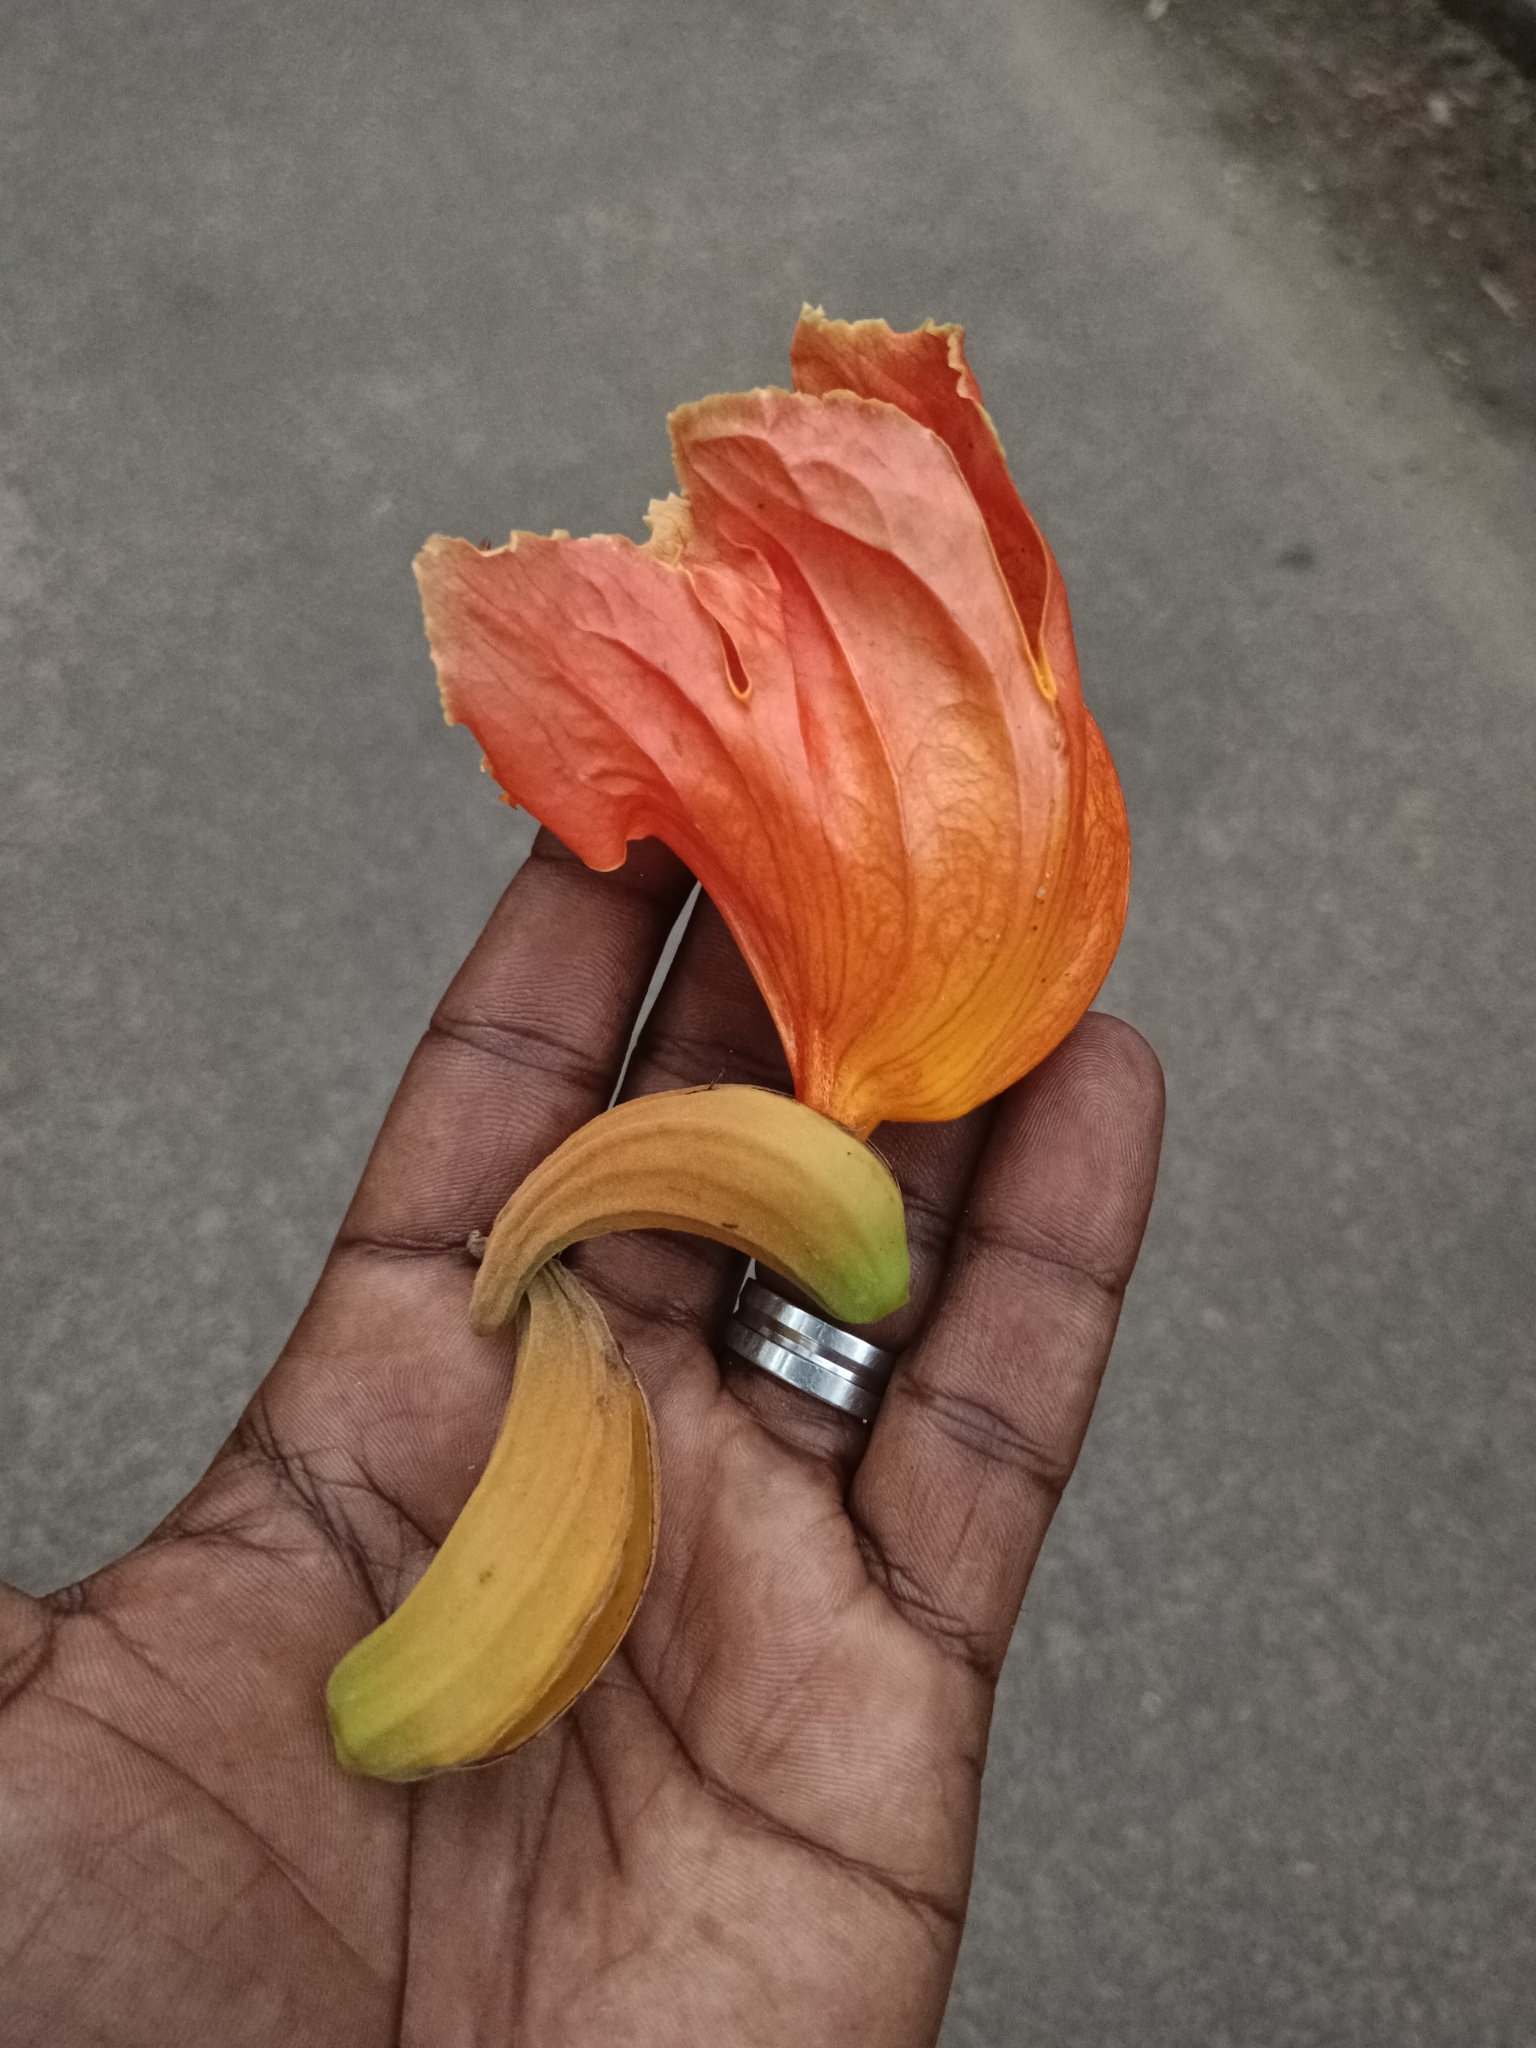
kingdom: Plantae
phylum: Tracheophyta
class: Magnoliopsida
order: Lamiales
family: Bignoniaceae
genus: Spathodea
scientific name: Spathodea campanulata
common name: African tuliptree
